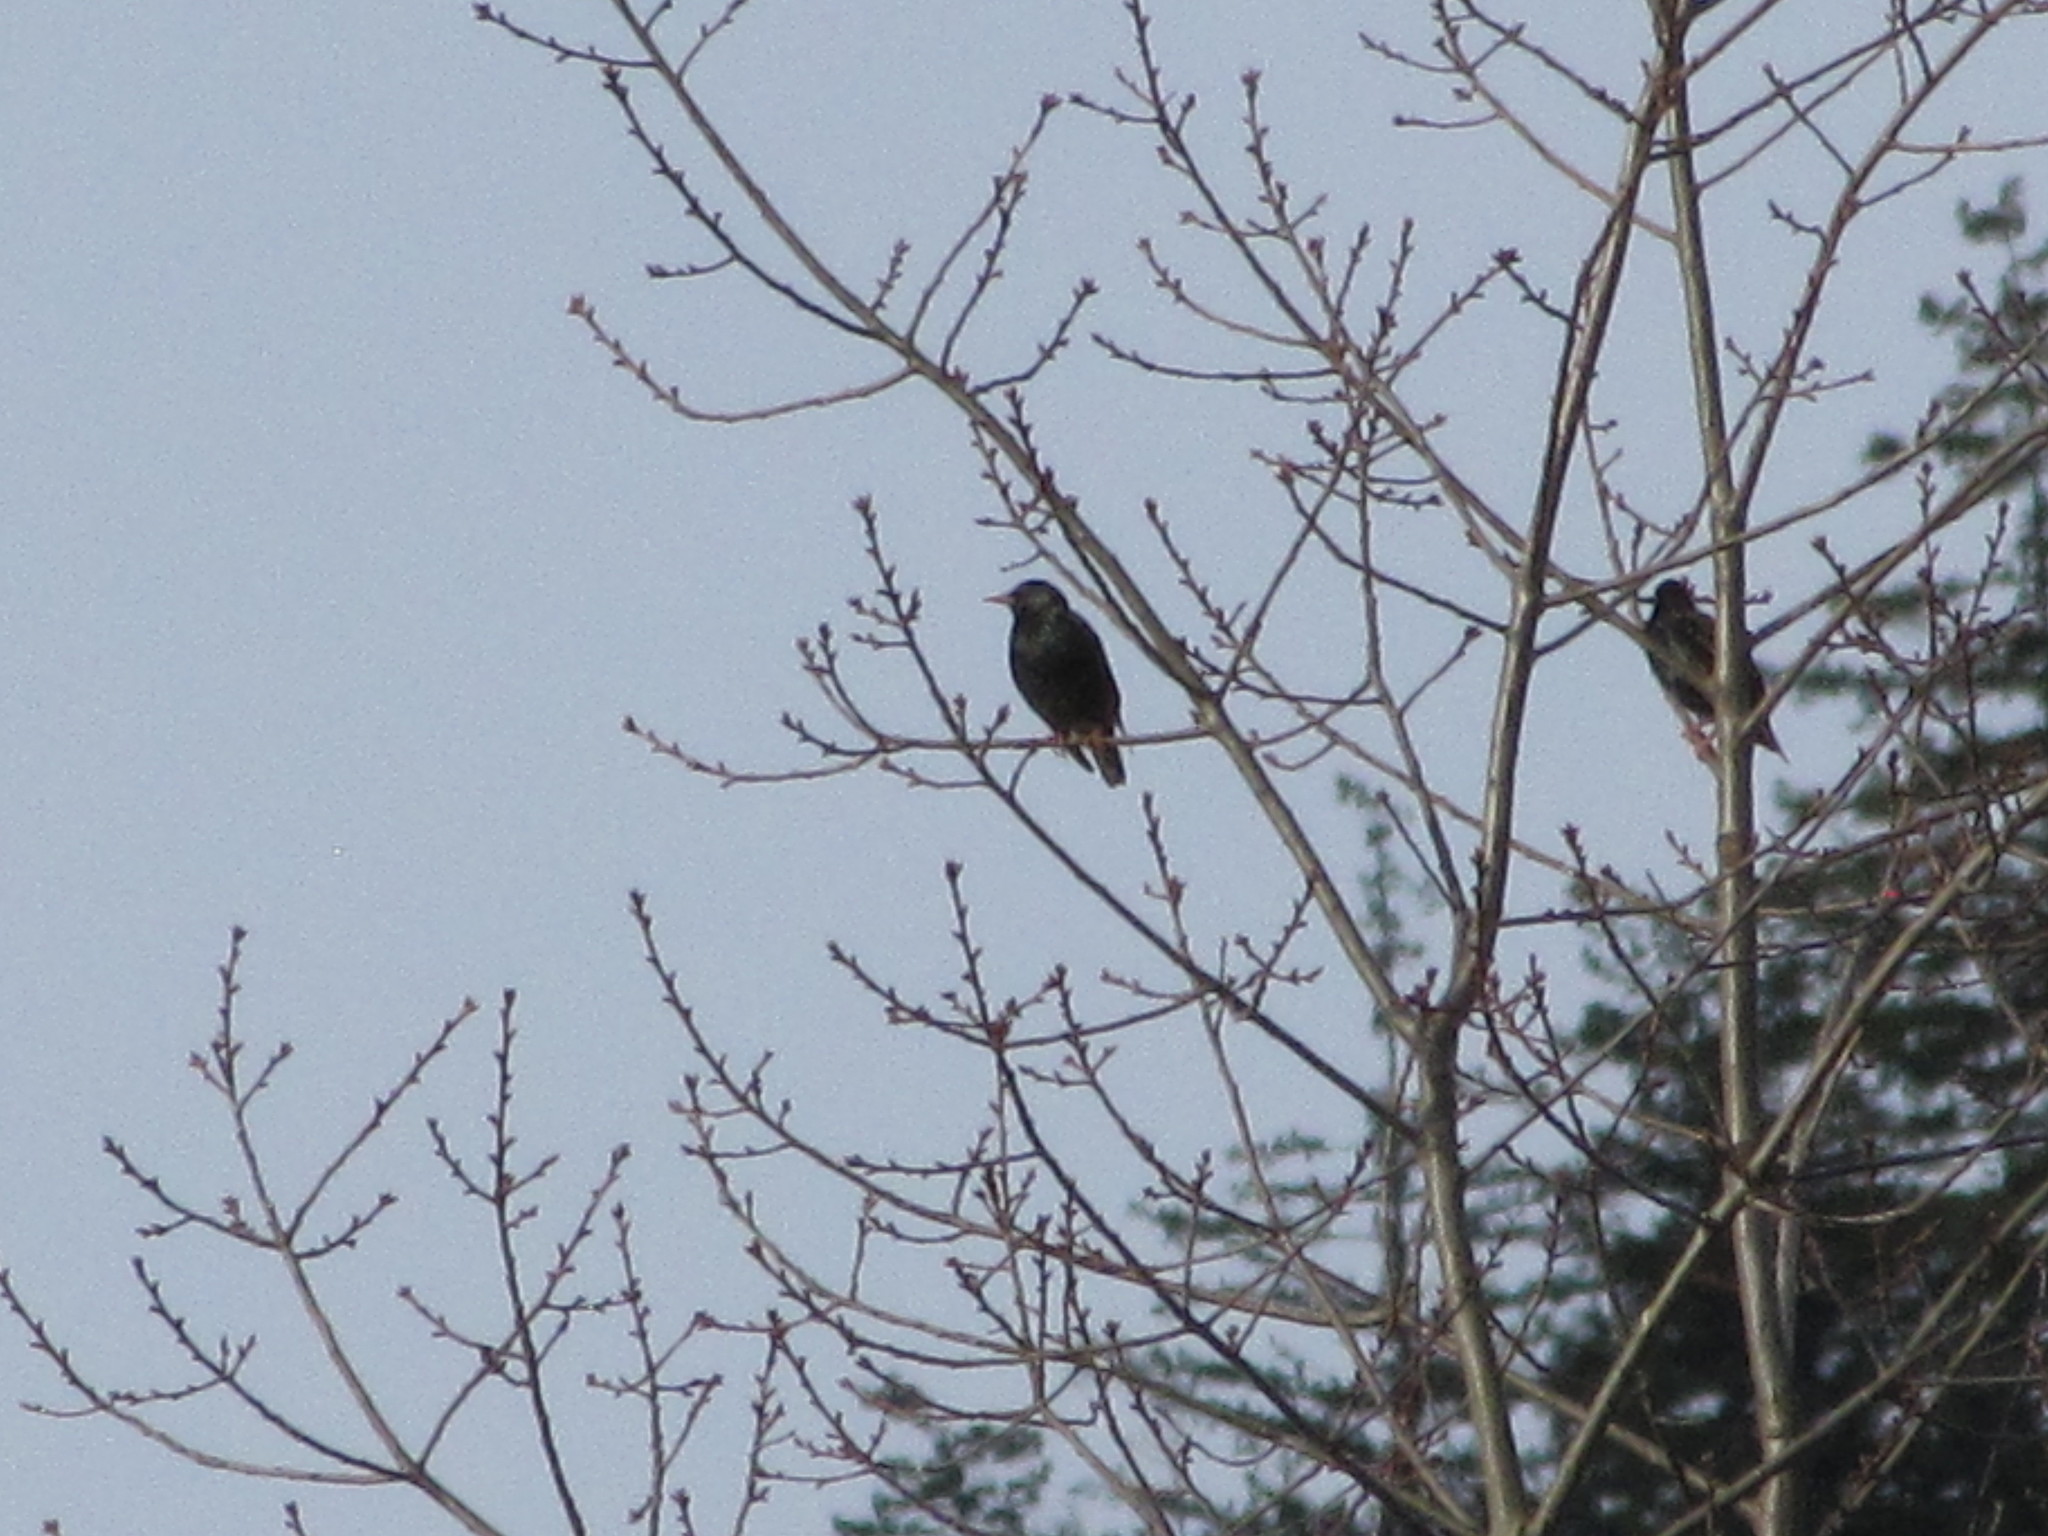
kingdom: Animalia
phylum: Chordata
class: Aves
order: Passeriformes
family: Sturnidae
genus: Sturnus
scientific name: Sturnus vulgaris
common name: Common starling
